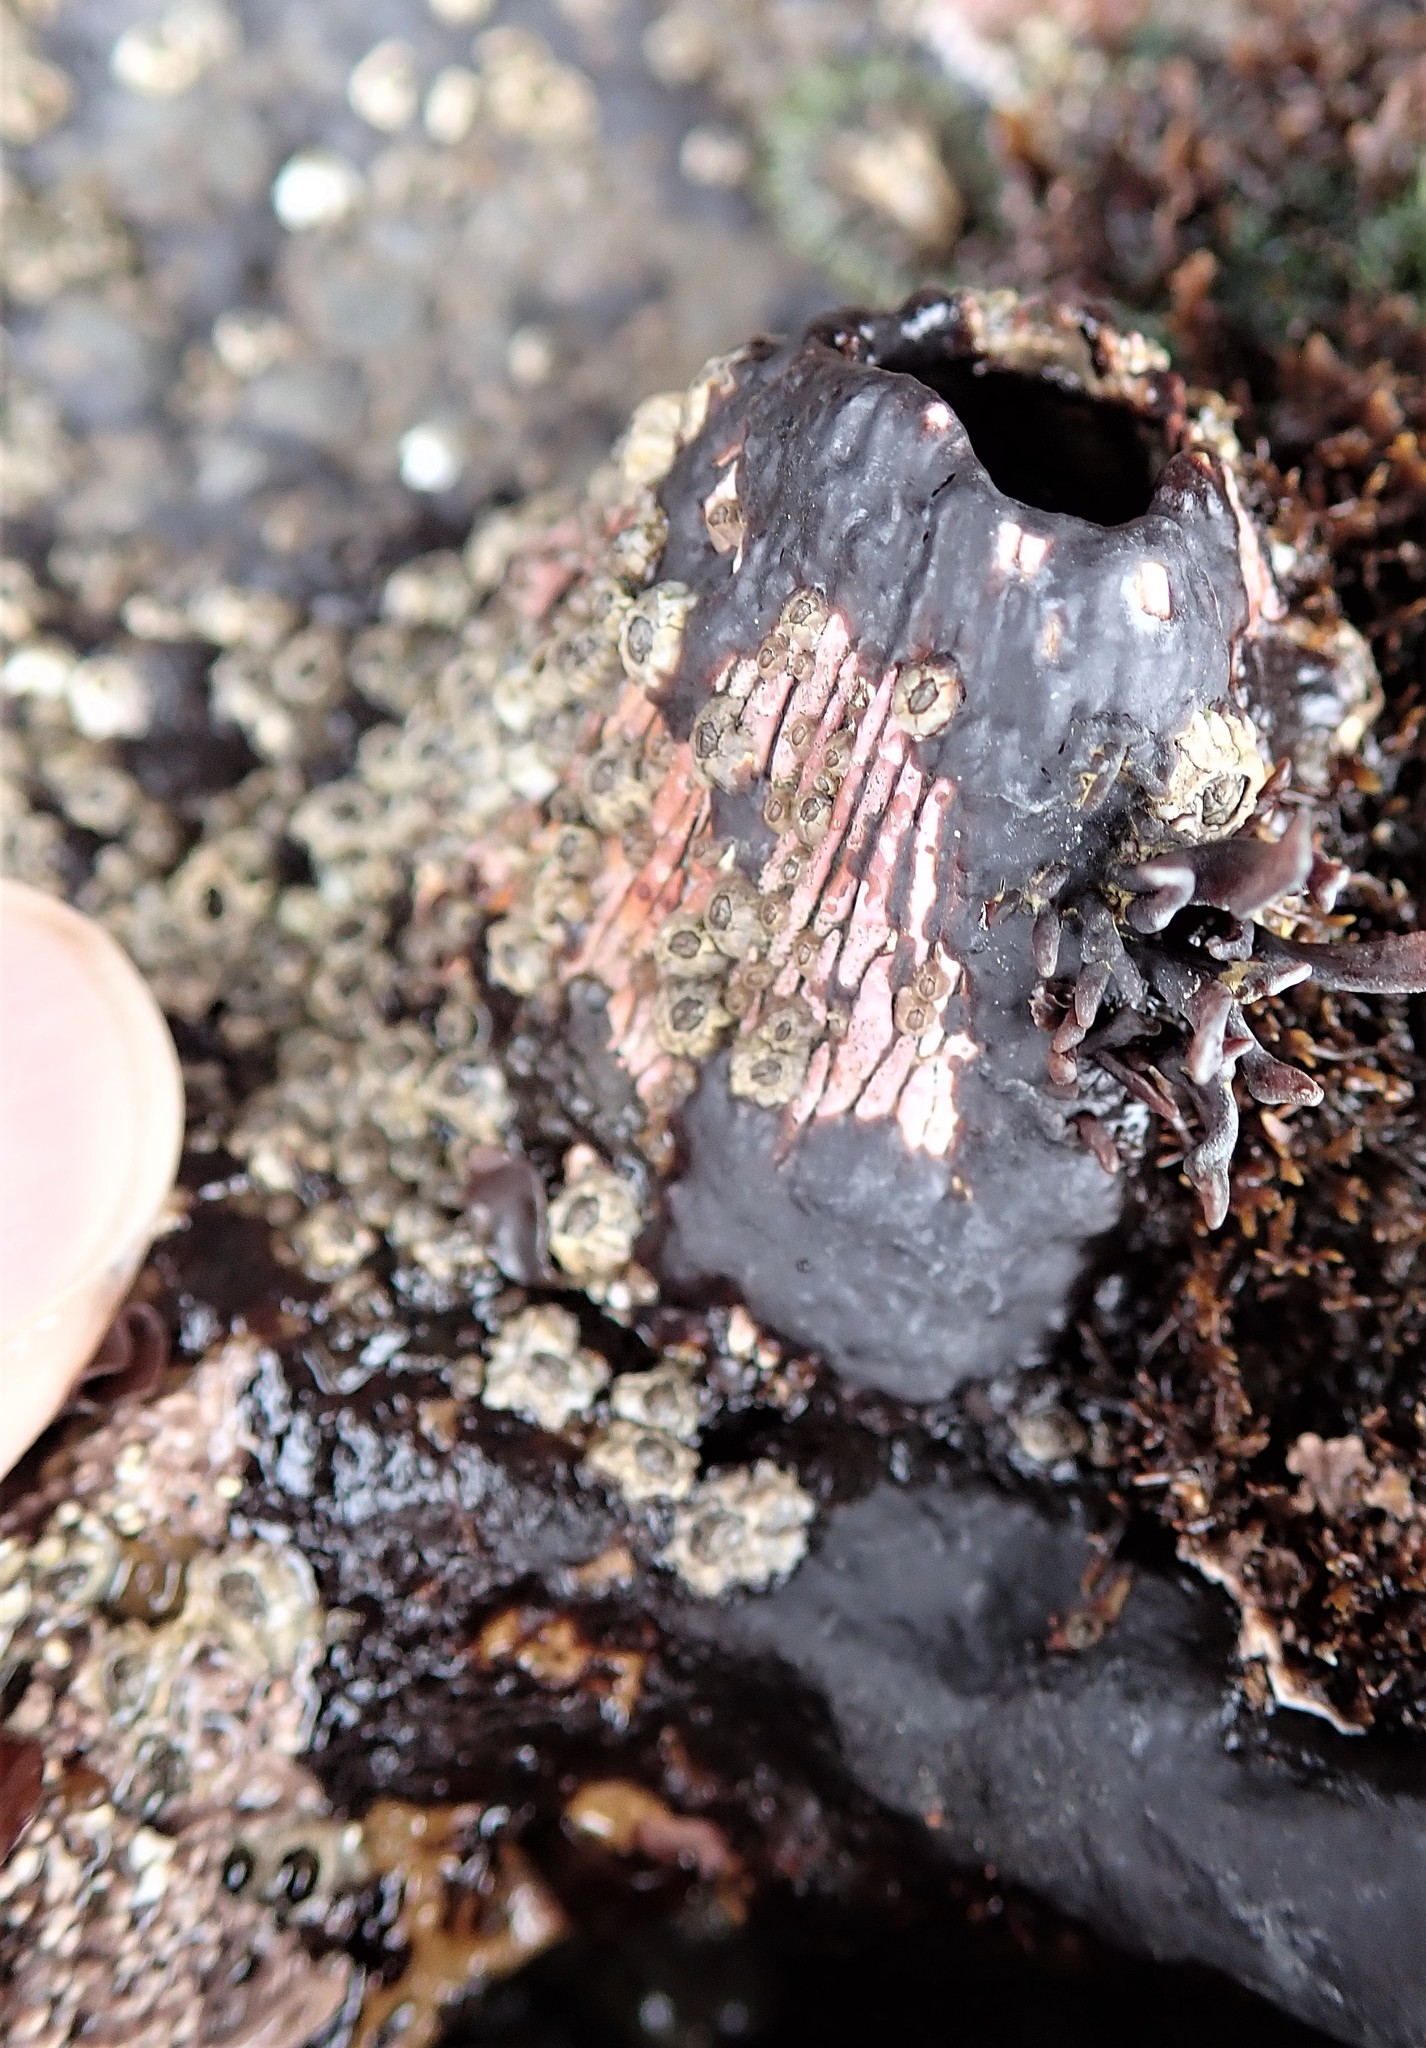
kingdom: Animalia
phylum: Arthropoda
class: Maxillopoda
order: Sessilia
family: Tetraclitidae
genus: Tetraclita
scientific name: Tetraclita rubescens
